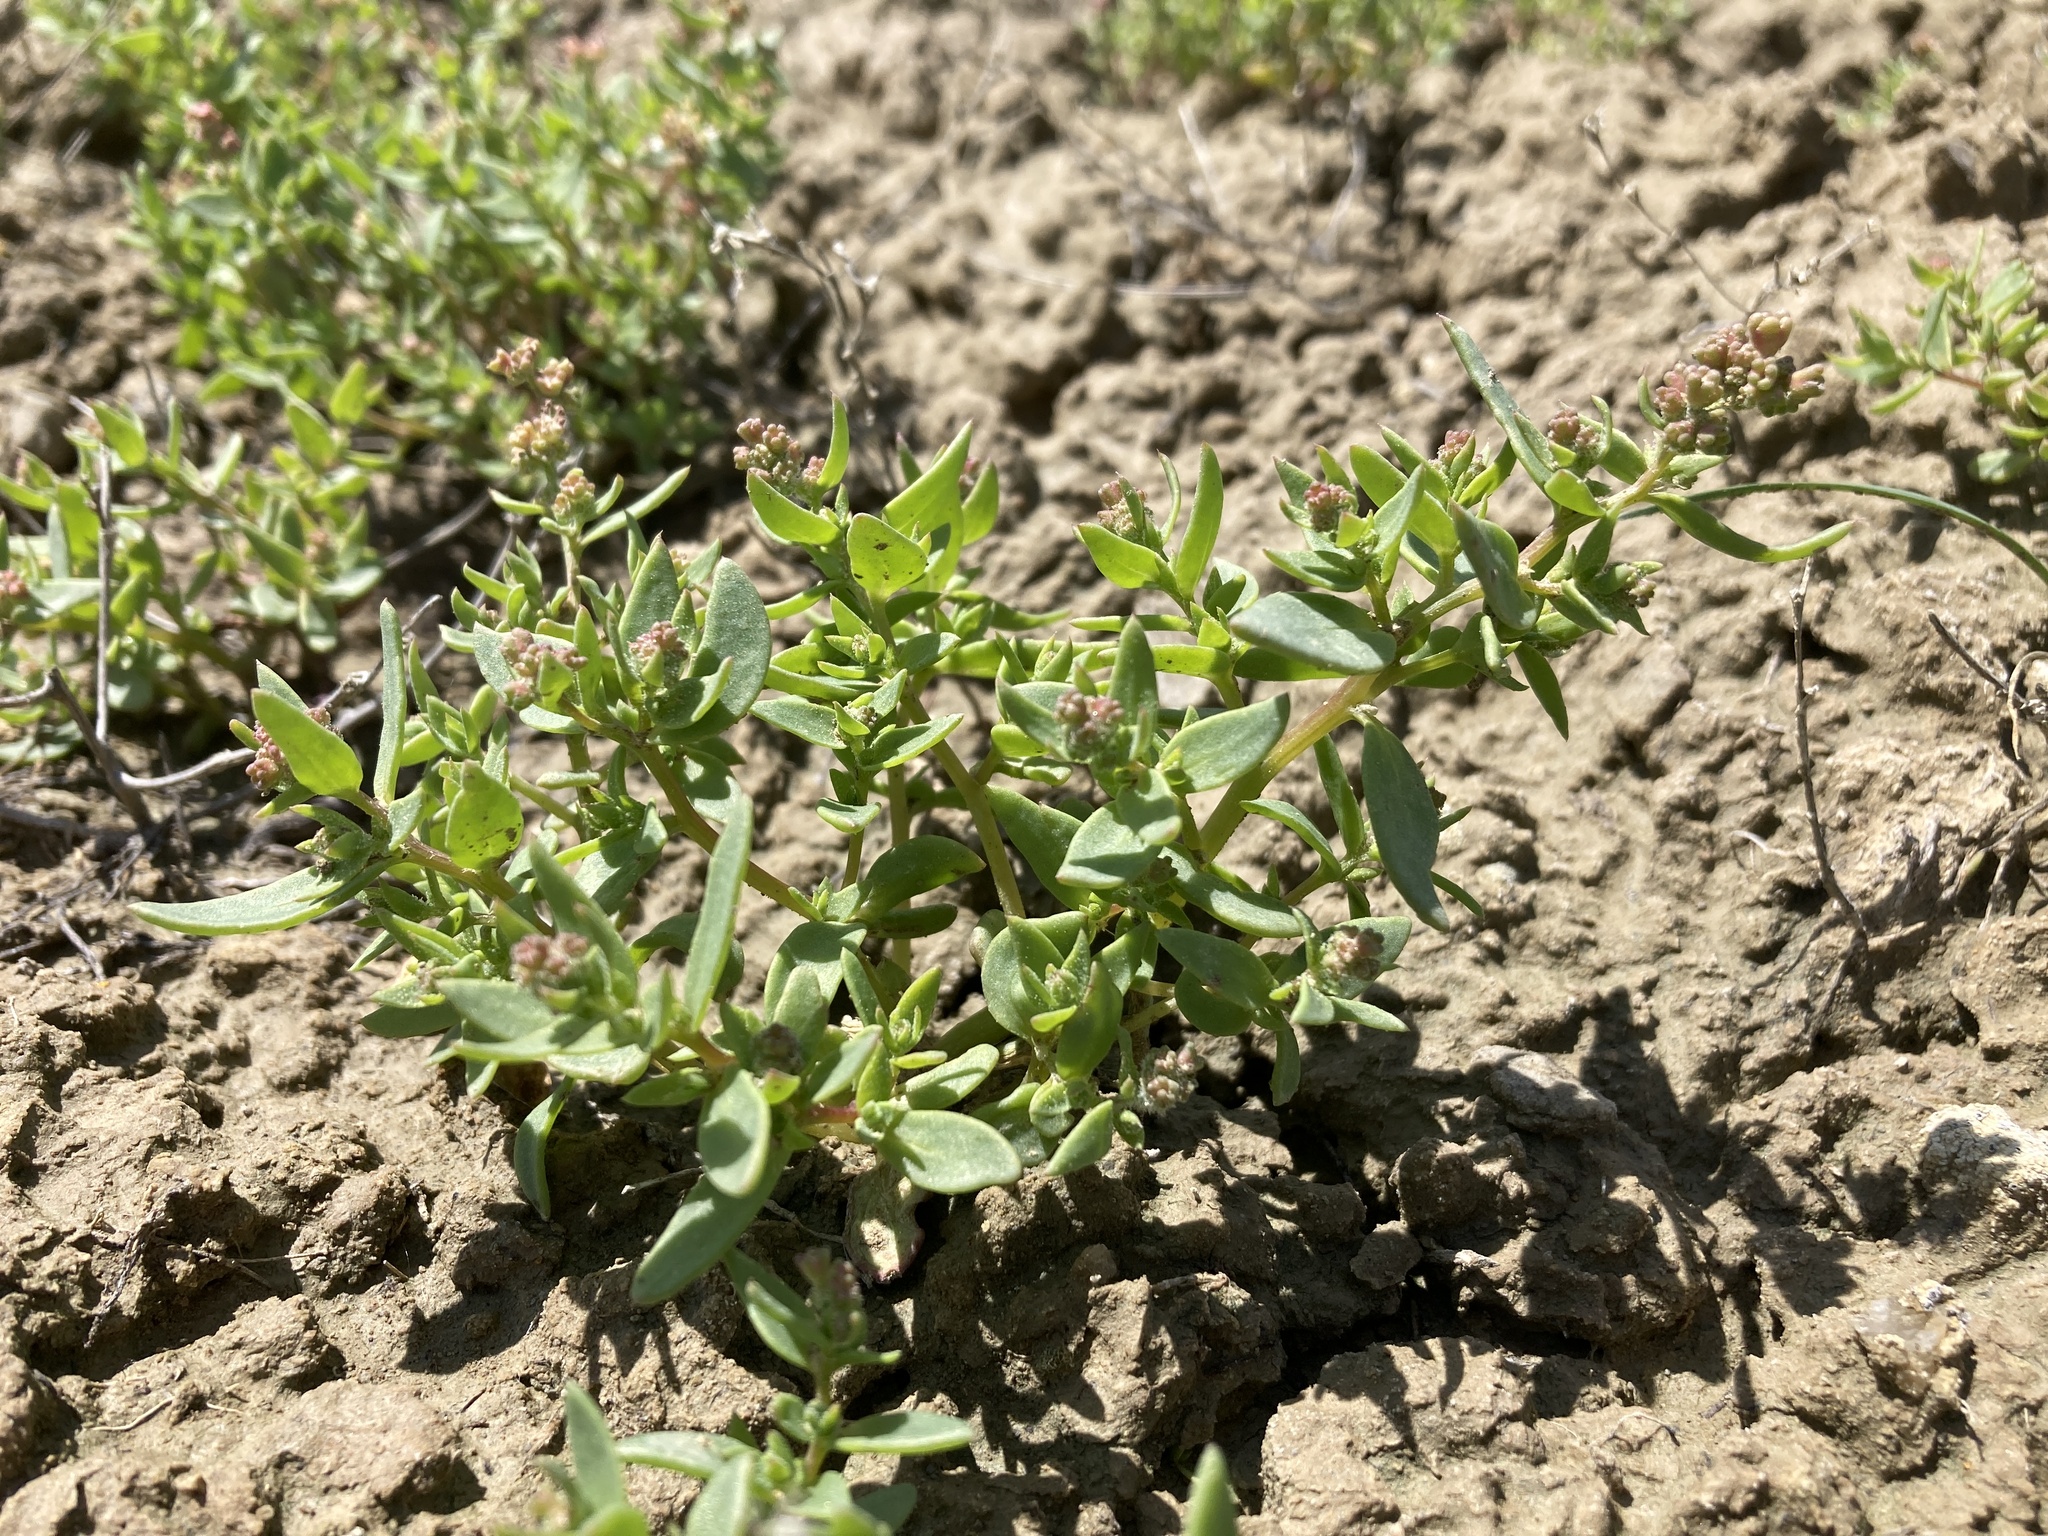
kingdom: Plantae
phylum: Tracheophyta
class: Magnoliopsida
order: Caryophyllales
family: Amaranthaceae
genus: Stutzia
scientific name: Stutzia dioica
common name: Suckley's orach
